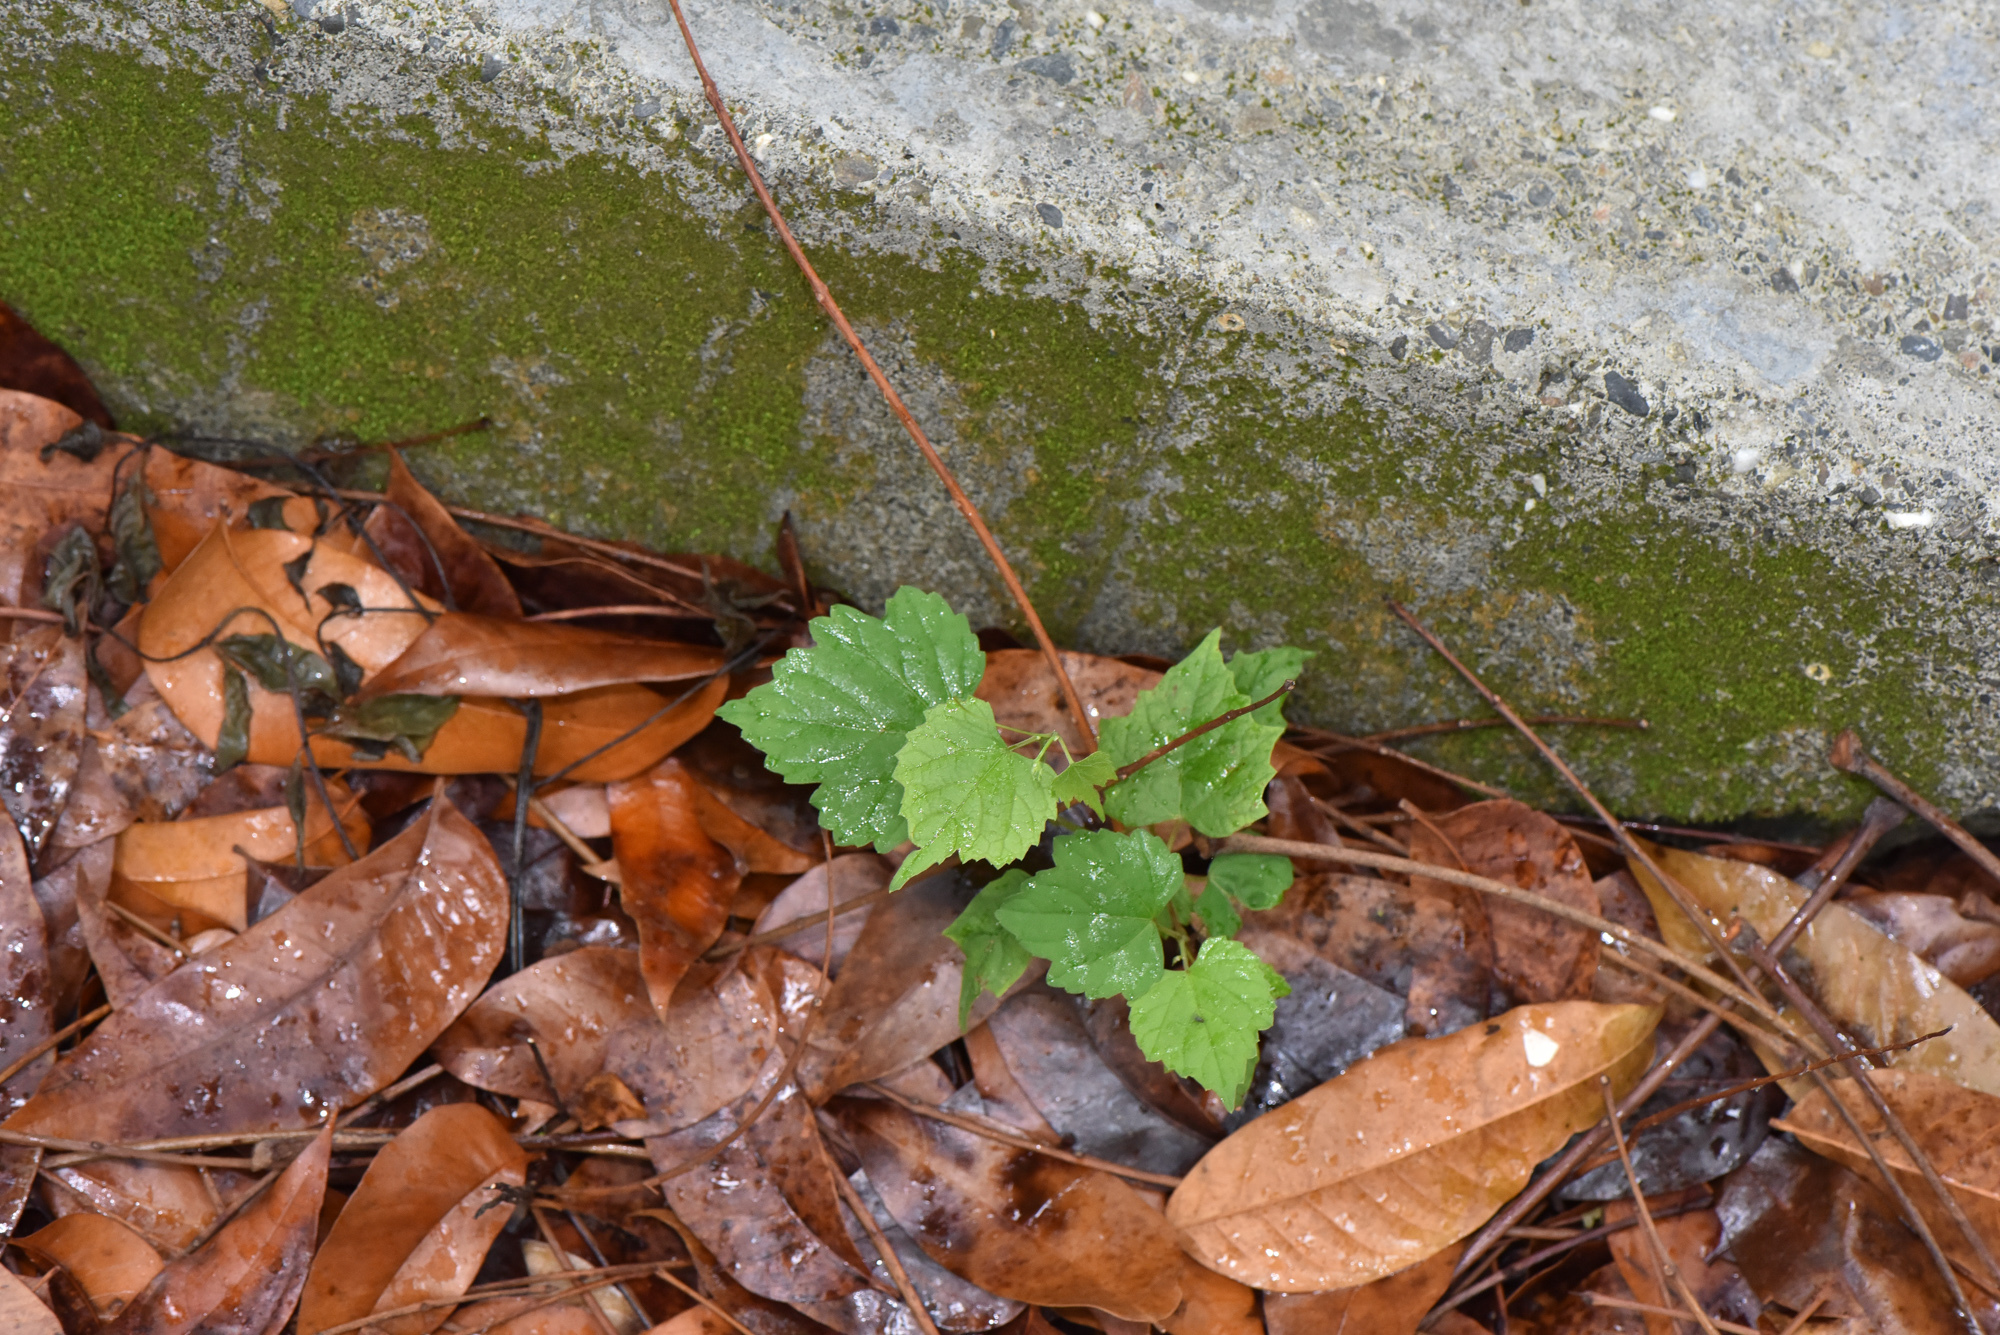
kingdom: Plantae
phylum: Tracheophyta
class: Magnoliopsida
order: Vitales
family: Vitaceae
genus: Ampelopsis
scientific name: Ampelopsis glandulosa
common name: Amur peppervine
